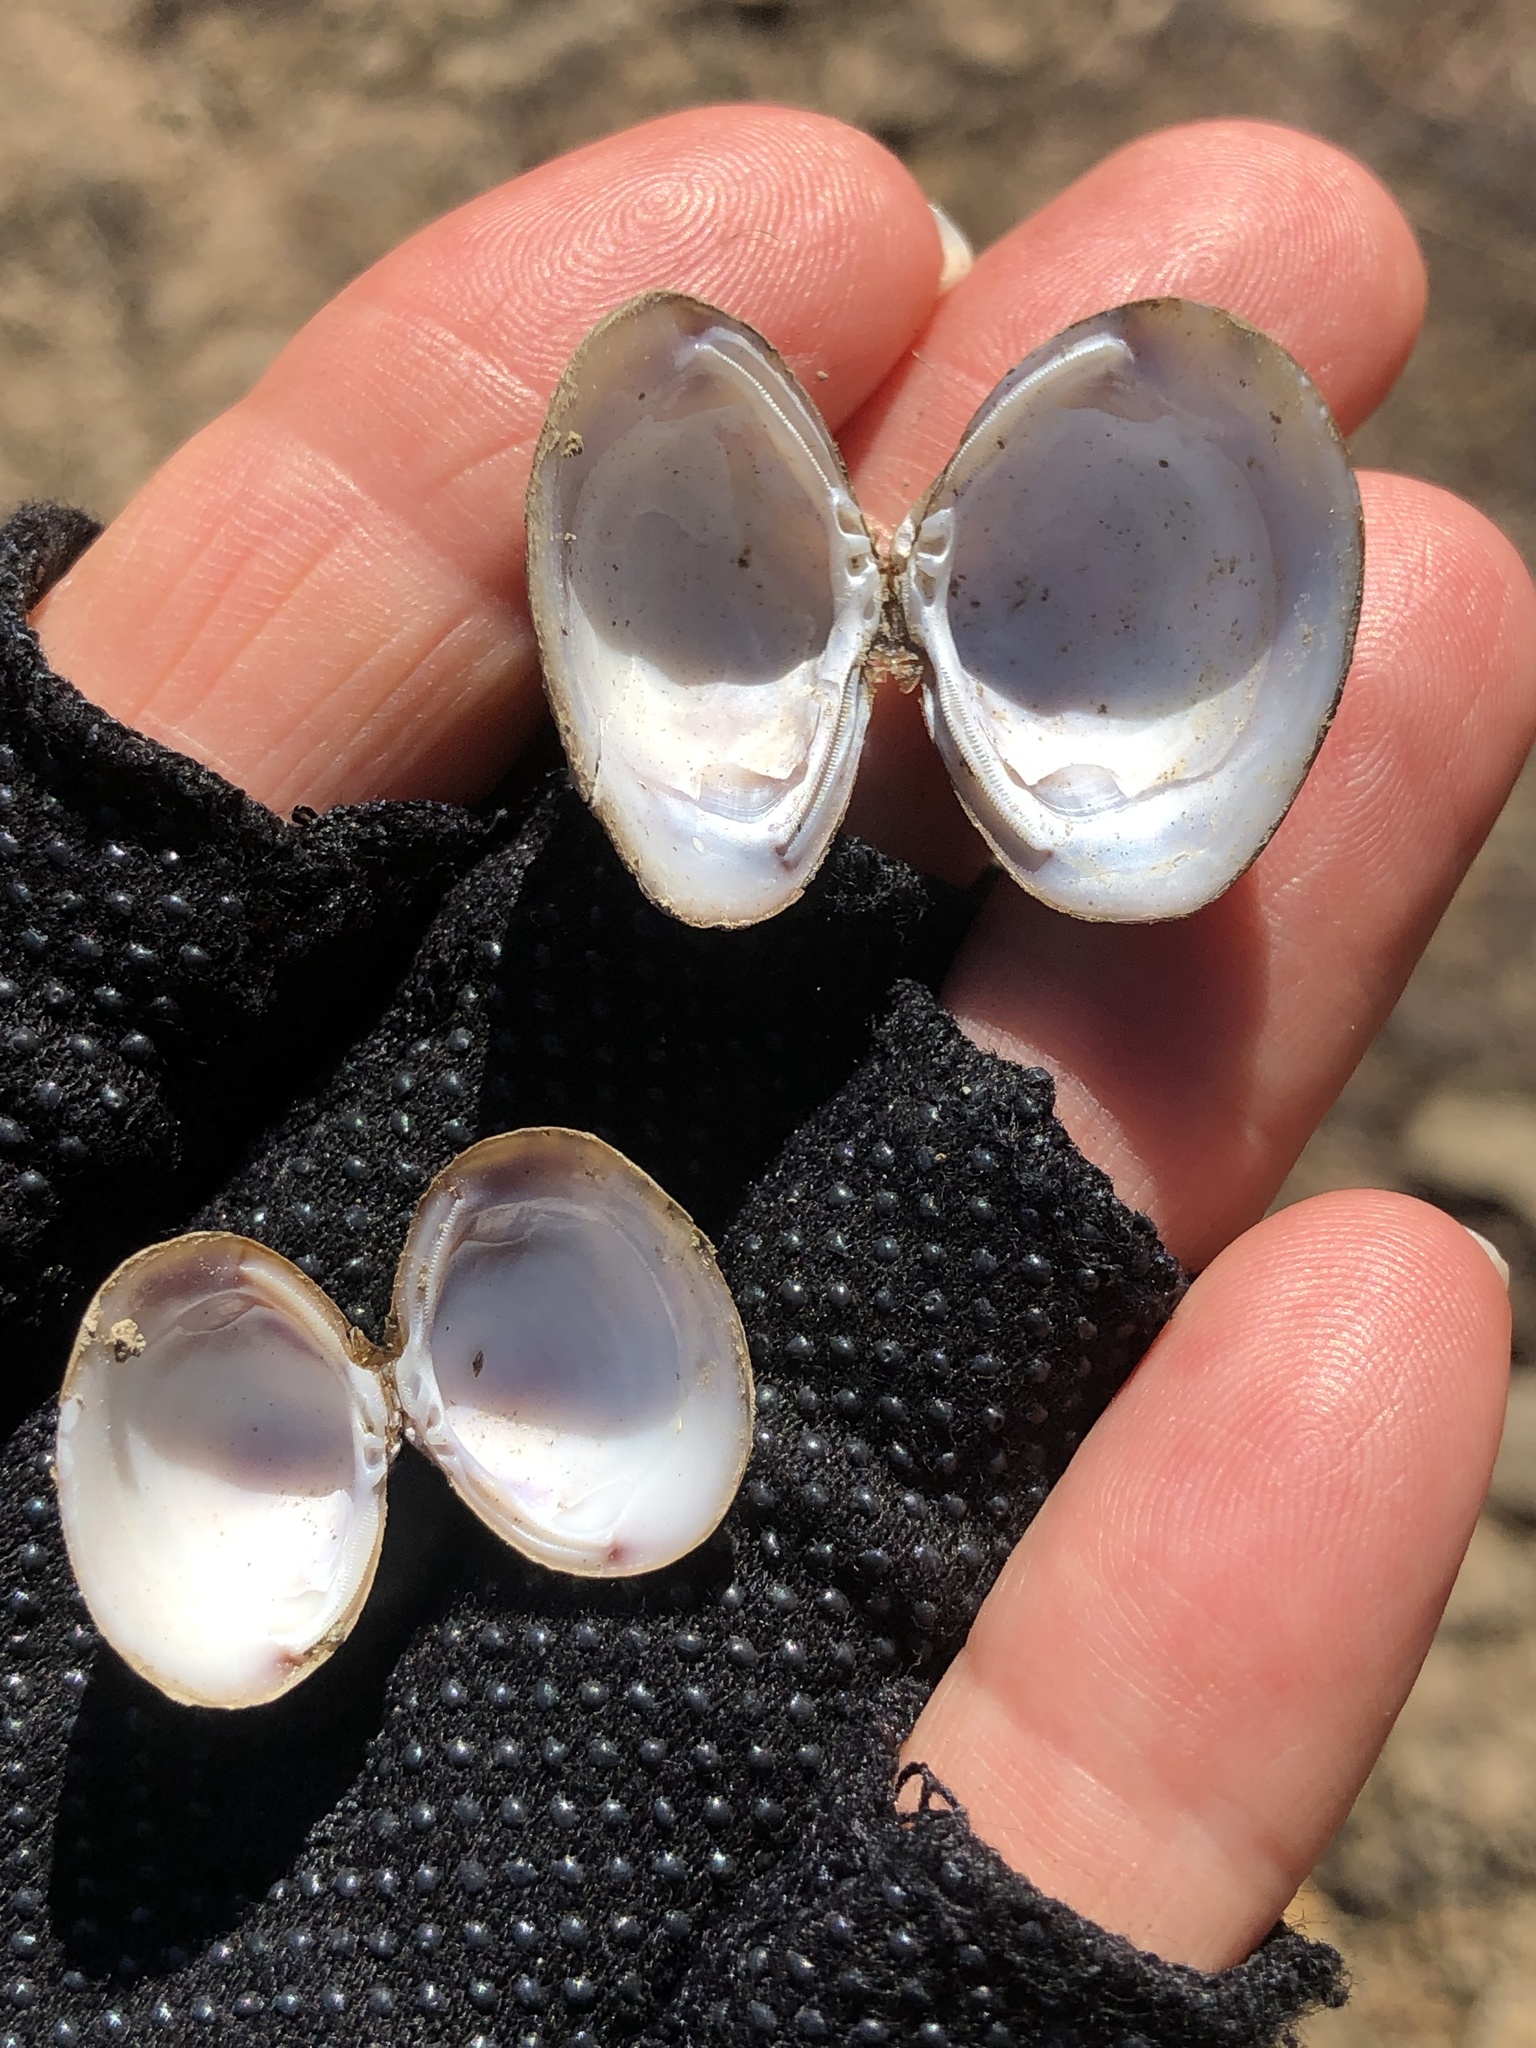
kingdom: Animalia
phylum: Mollusca
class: Bivalvia
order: Venerida
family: Cyrenidae
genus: Corbicula
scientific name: Corbicula fluminea
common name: Asian clam
